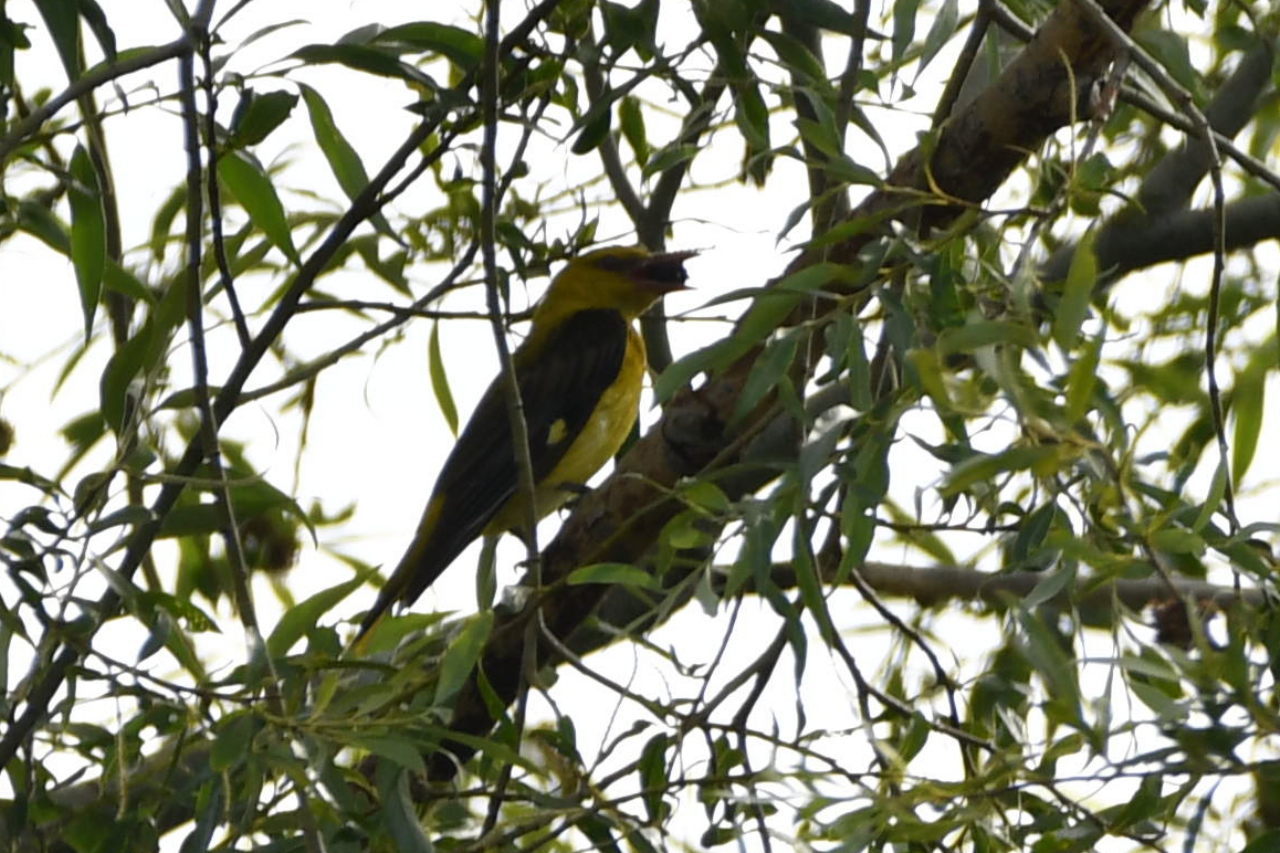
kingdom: Animalia
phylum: Chordata
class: Aves
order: Passeriformes
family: Oriolidae
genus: Oriolus
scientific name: Oriolus oriolus
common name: Eurasian golden oriole
